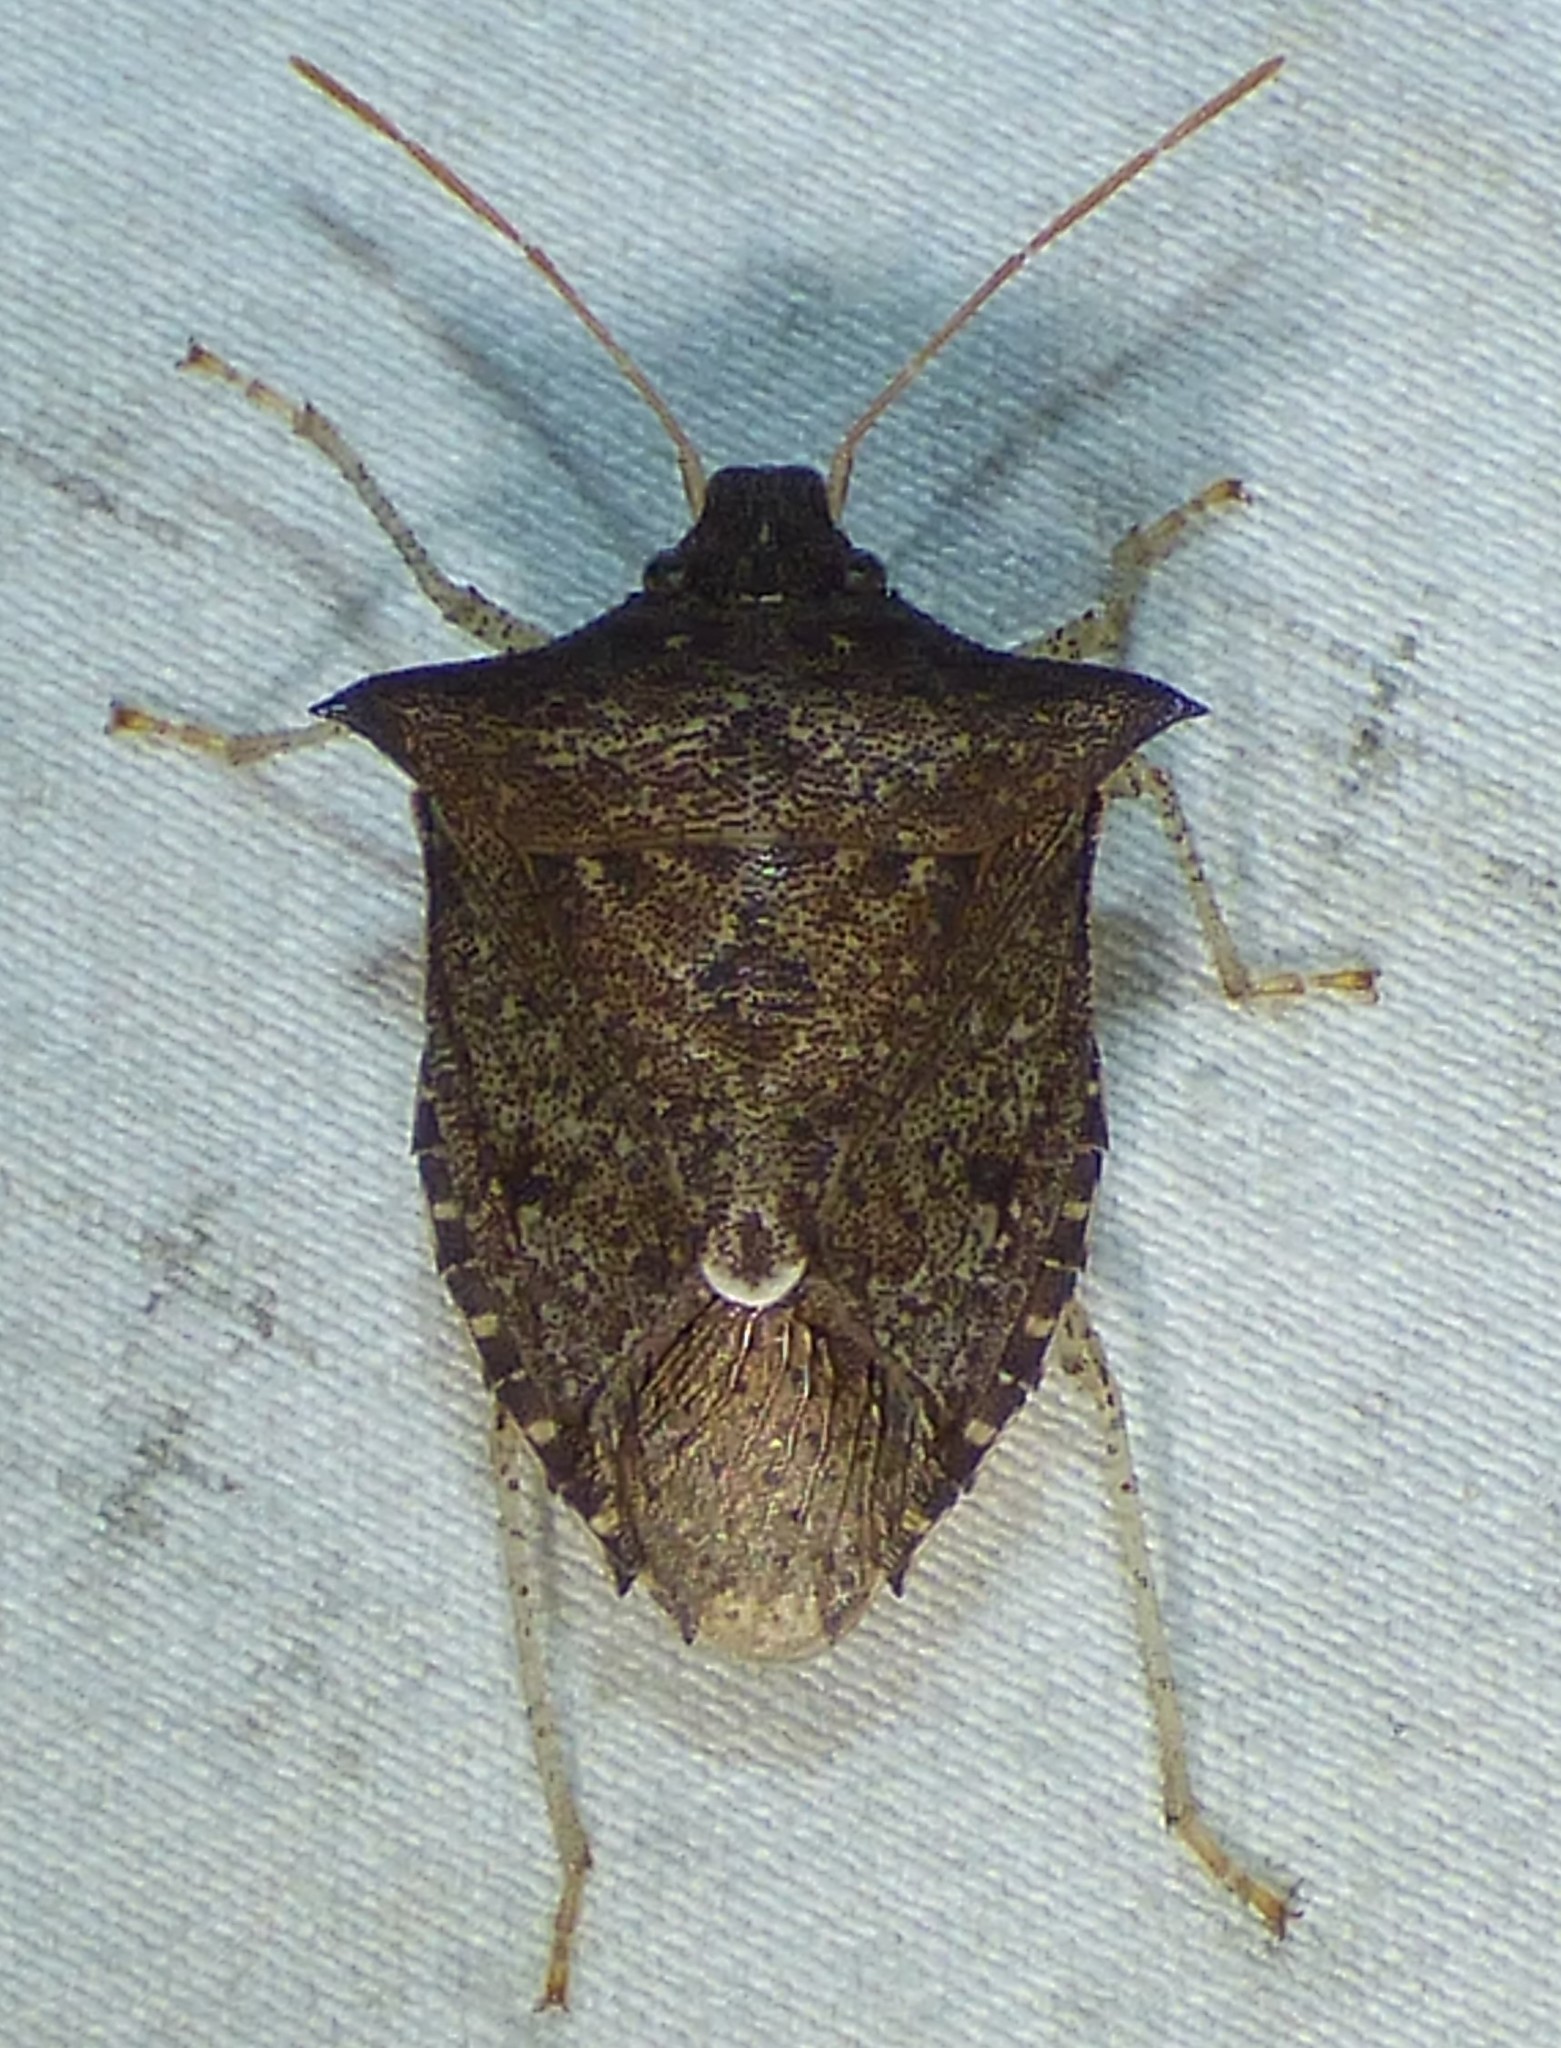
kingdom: Animalia
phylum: Arthropoda
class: Insecta
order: Hemiptera
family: Pentatomidae
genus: Euschistus
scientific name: Euschistus tristigmus
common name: Dusky stink bug
